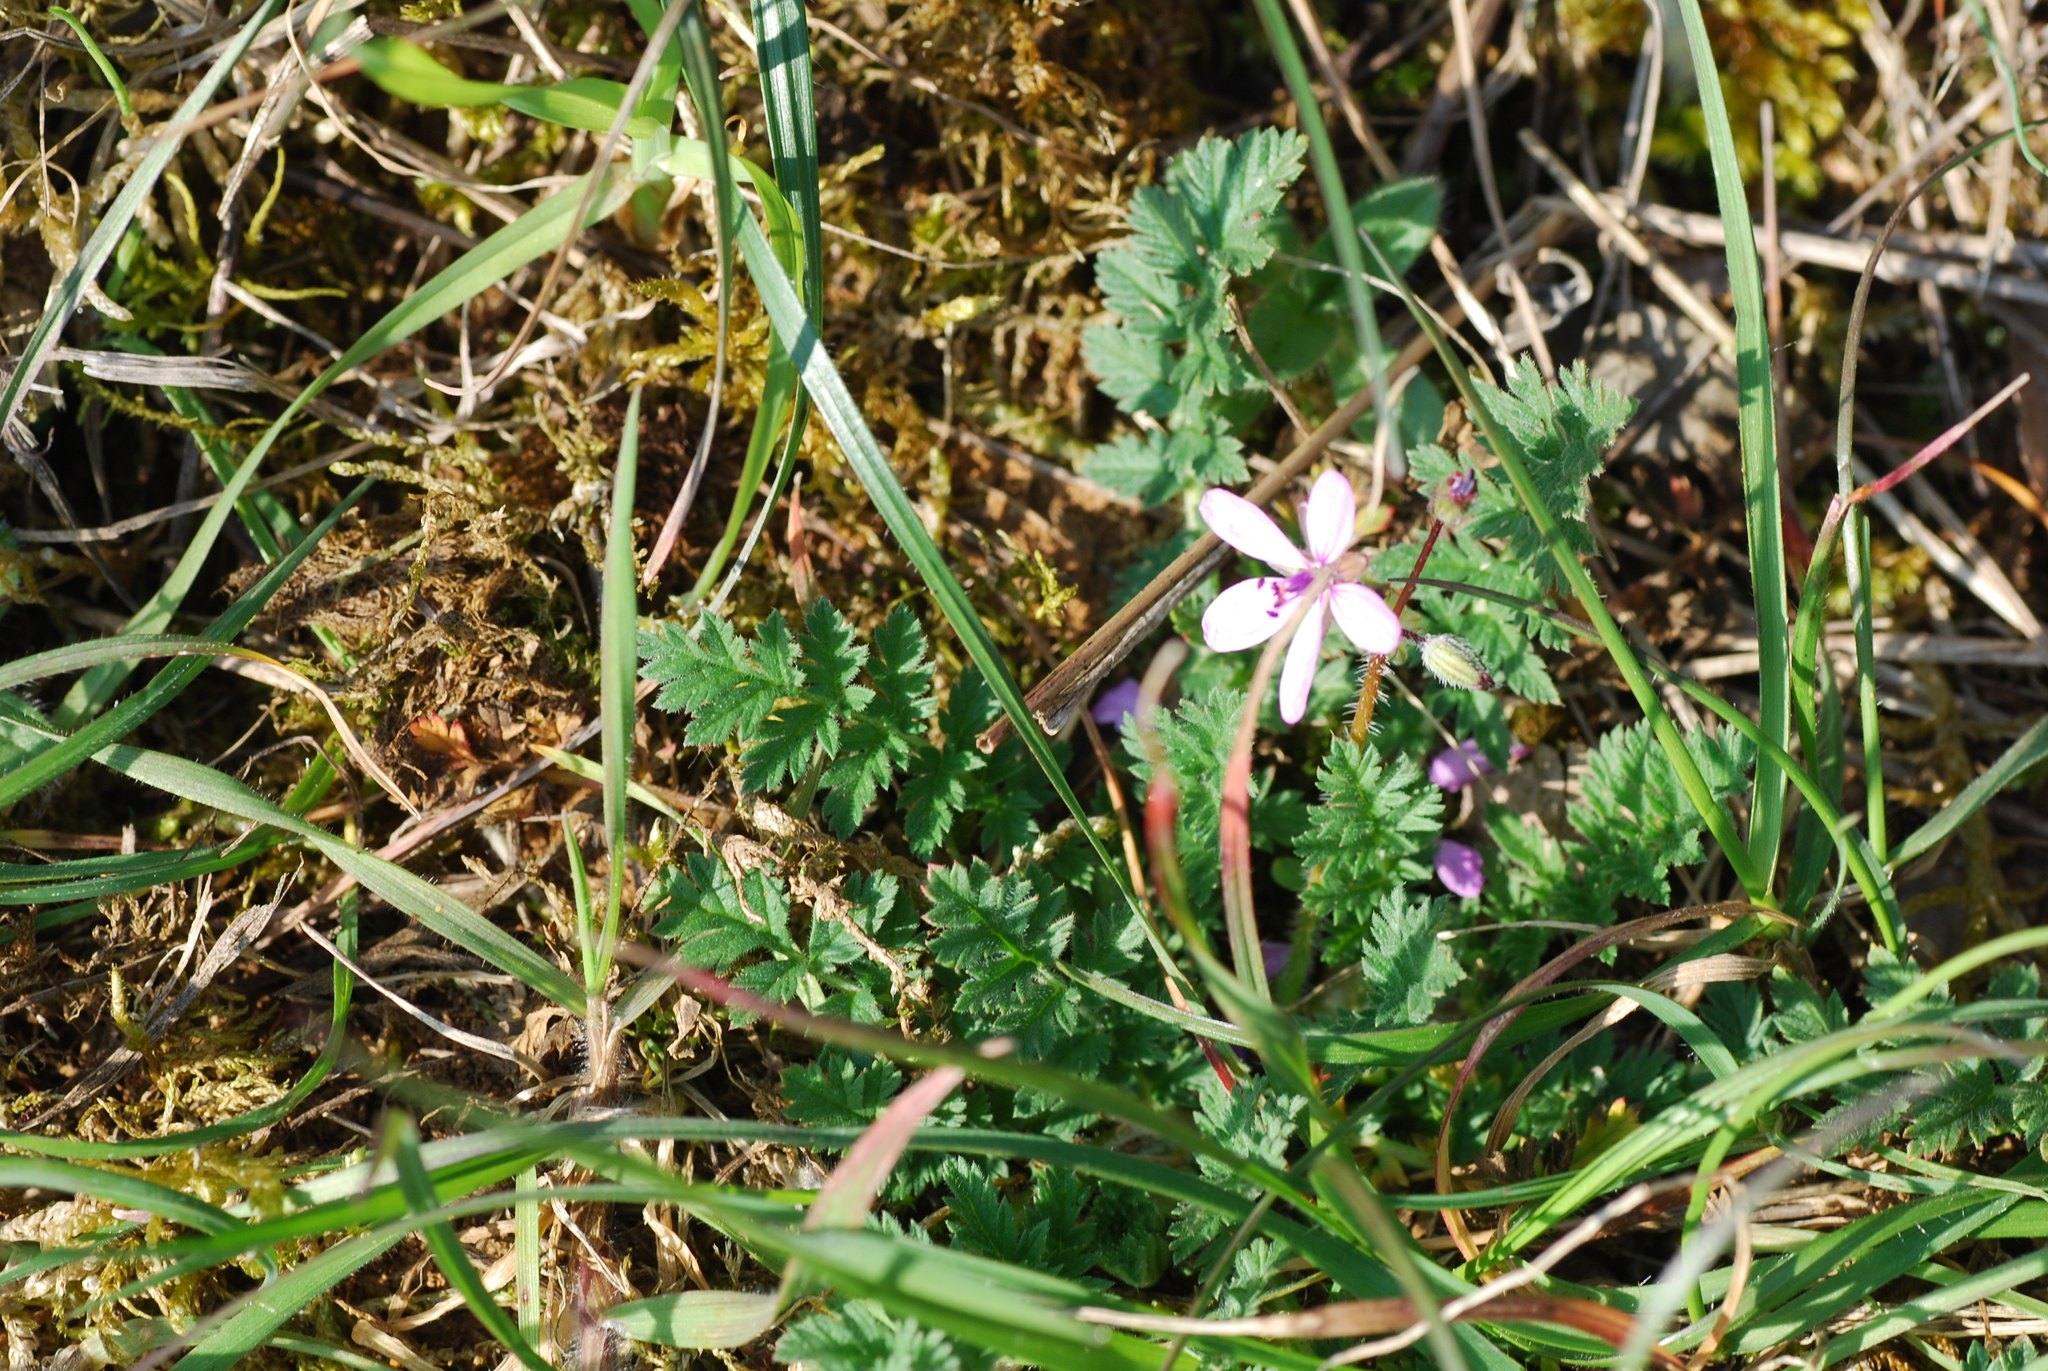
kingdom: Plantae
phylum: Tracheophyta
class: Magnoliopsida
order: Geraniales
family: Geraniaceae
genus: Erodium
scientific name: Erodium cicutarium
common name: Common stork's-bill
